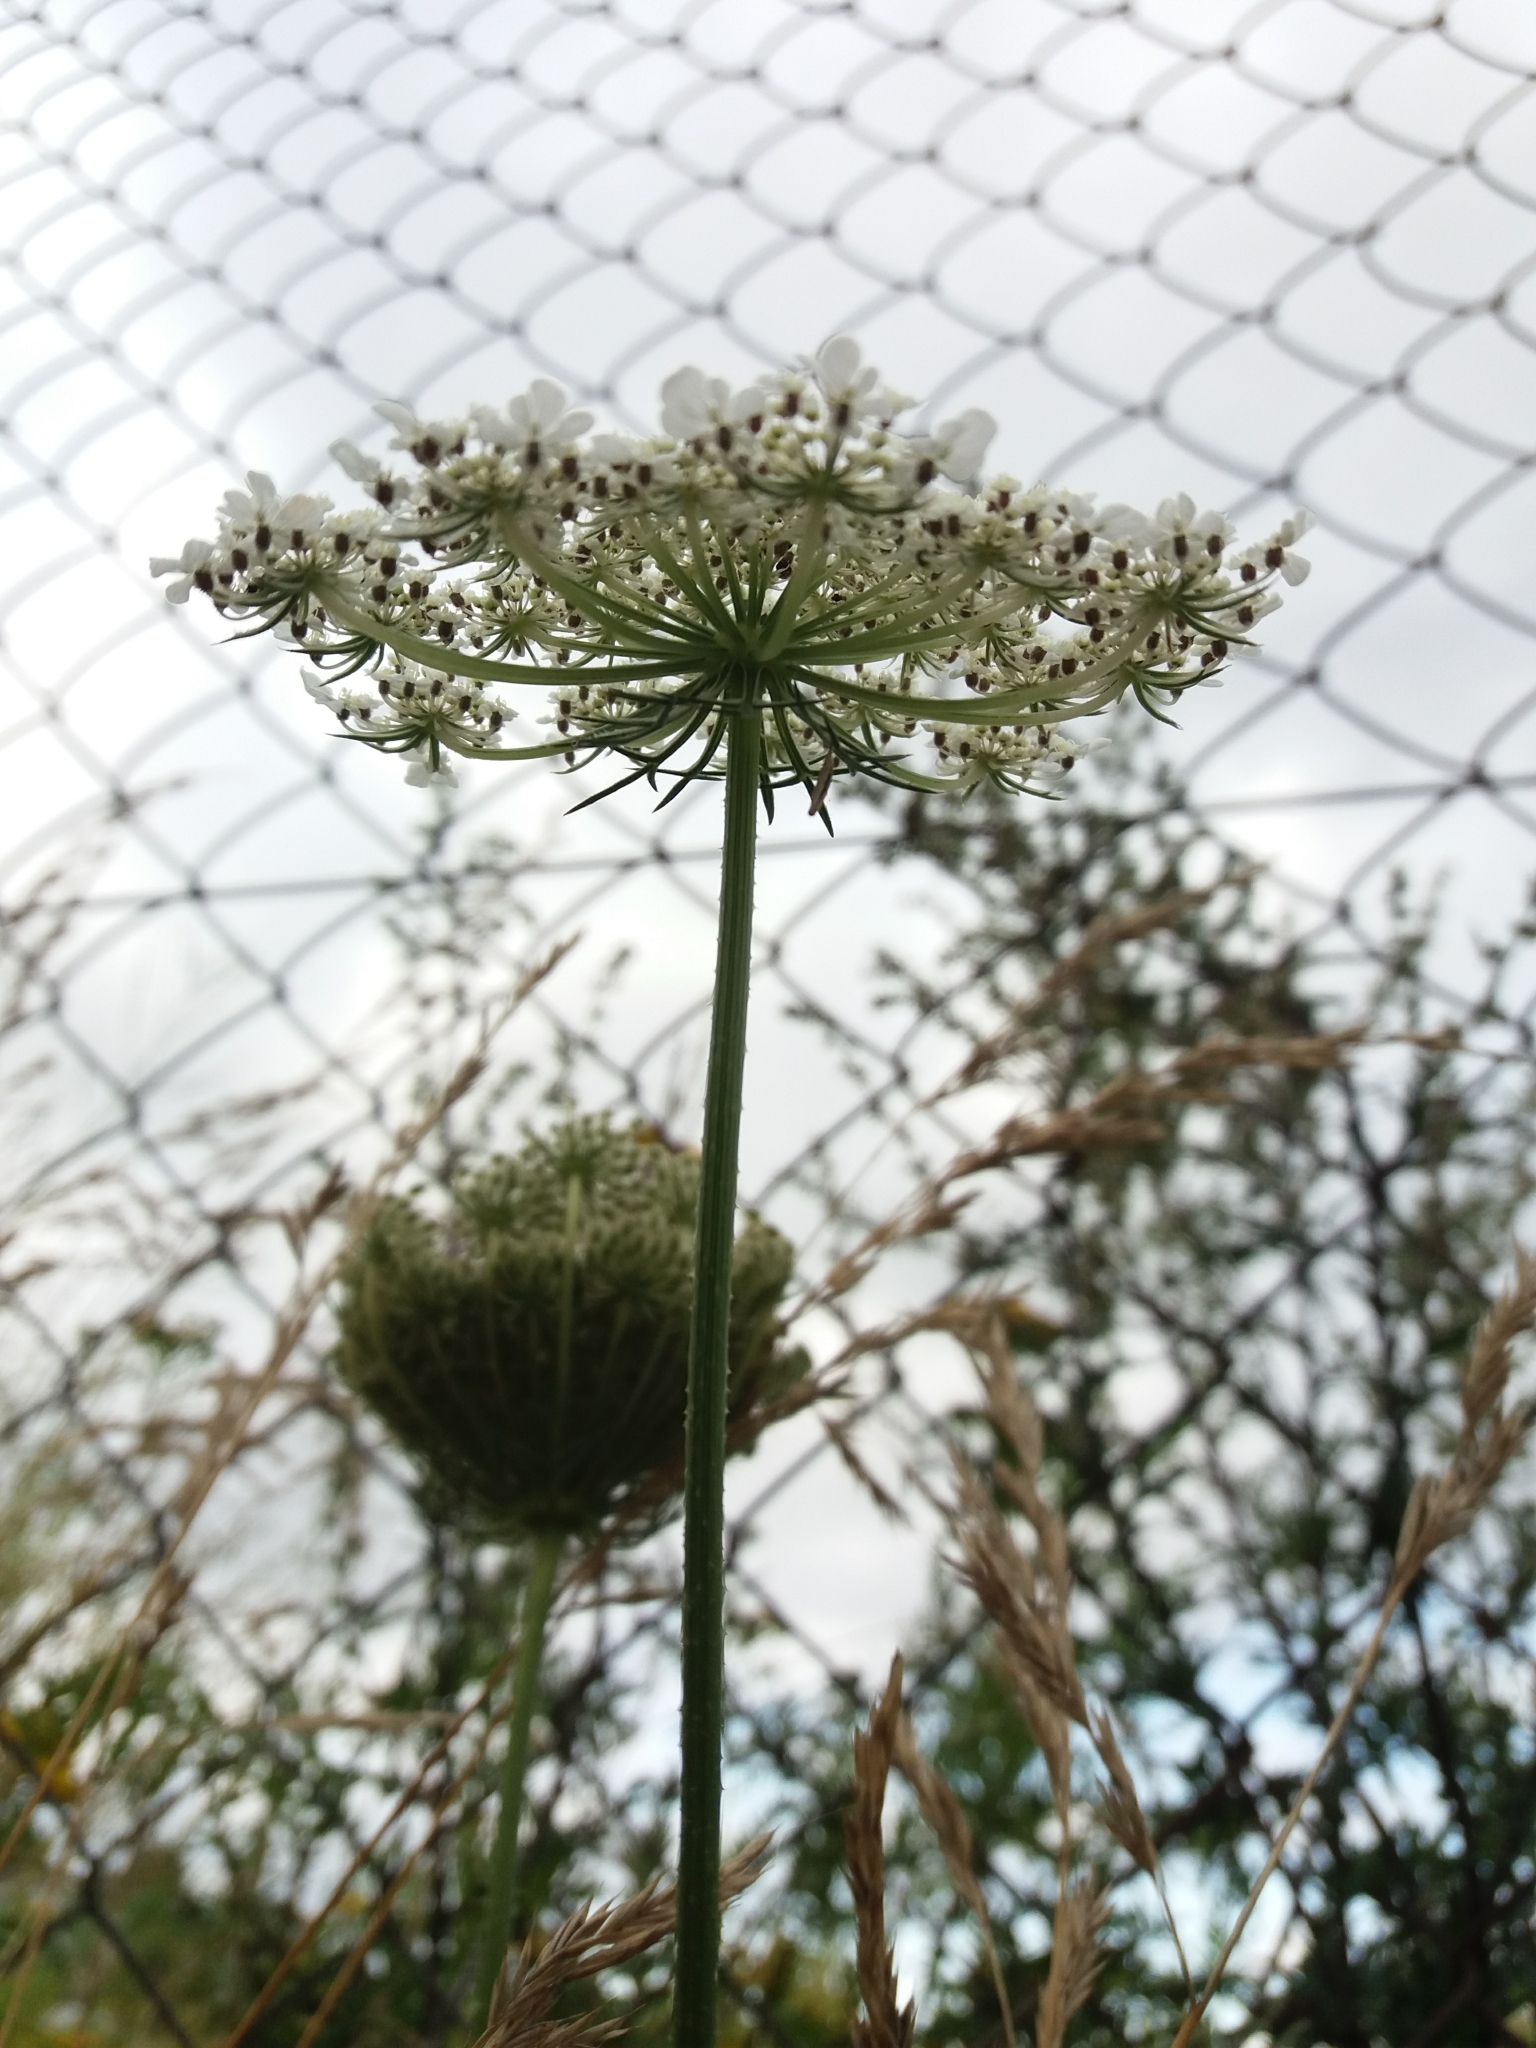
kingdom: Plantae
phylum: Tracheophyta
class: Magnoliopsida
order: Apiales
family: Apiaceae
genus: Daucus
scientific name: Daucus carota
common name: Wild carrot
